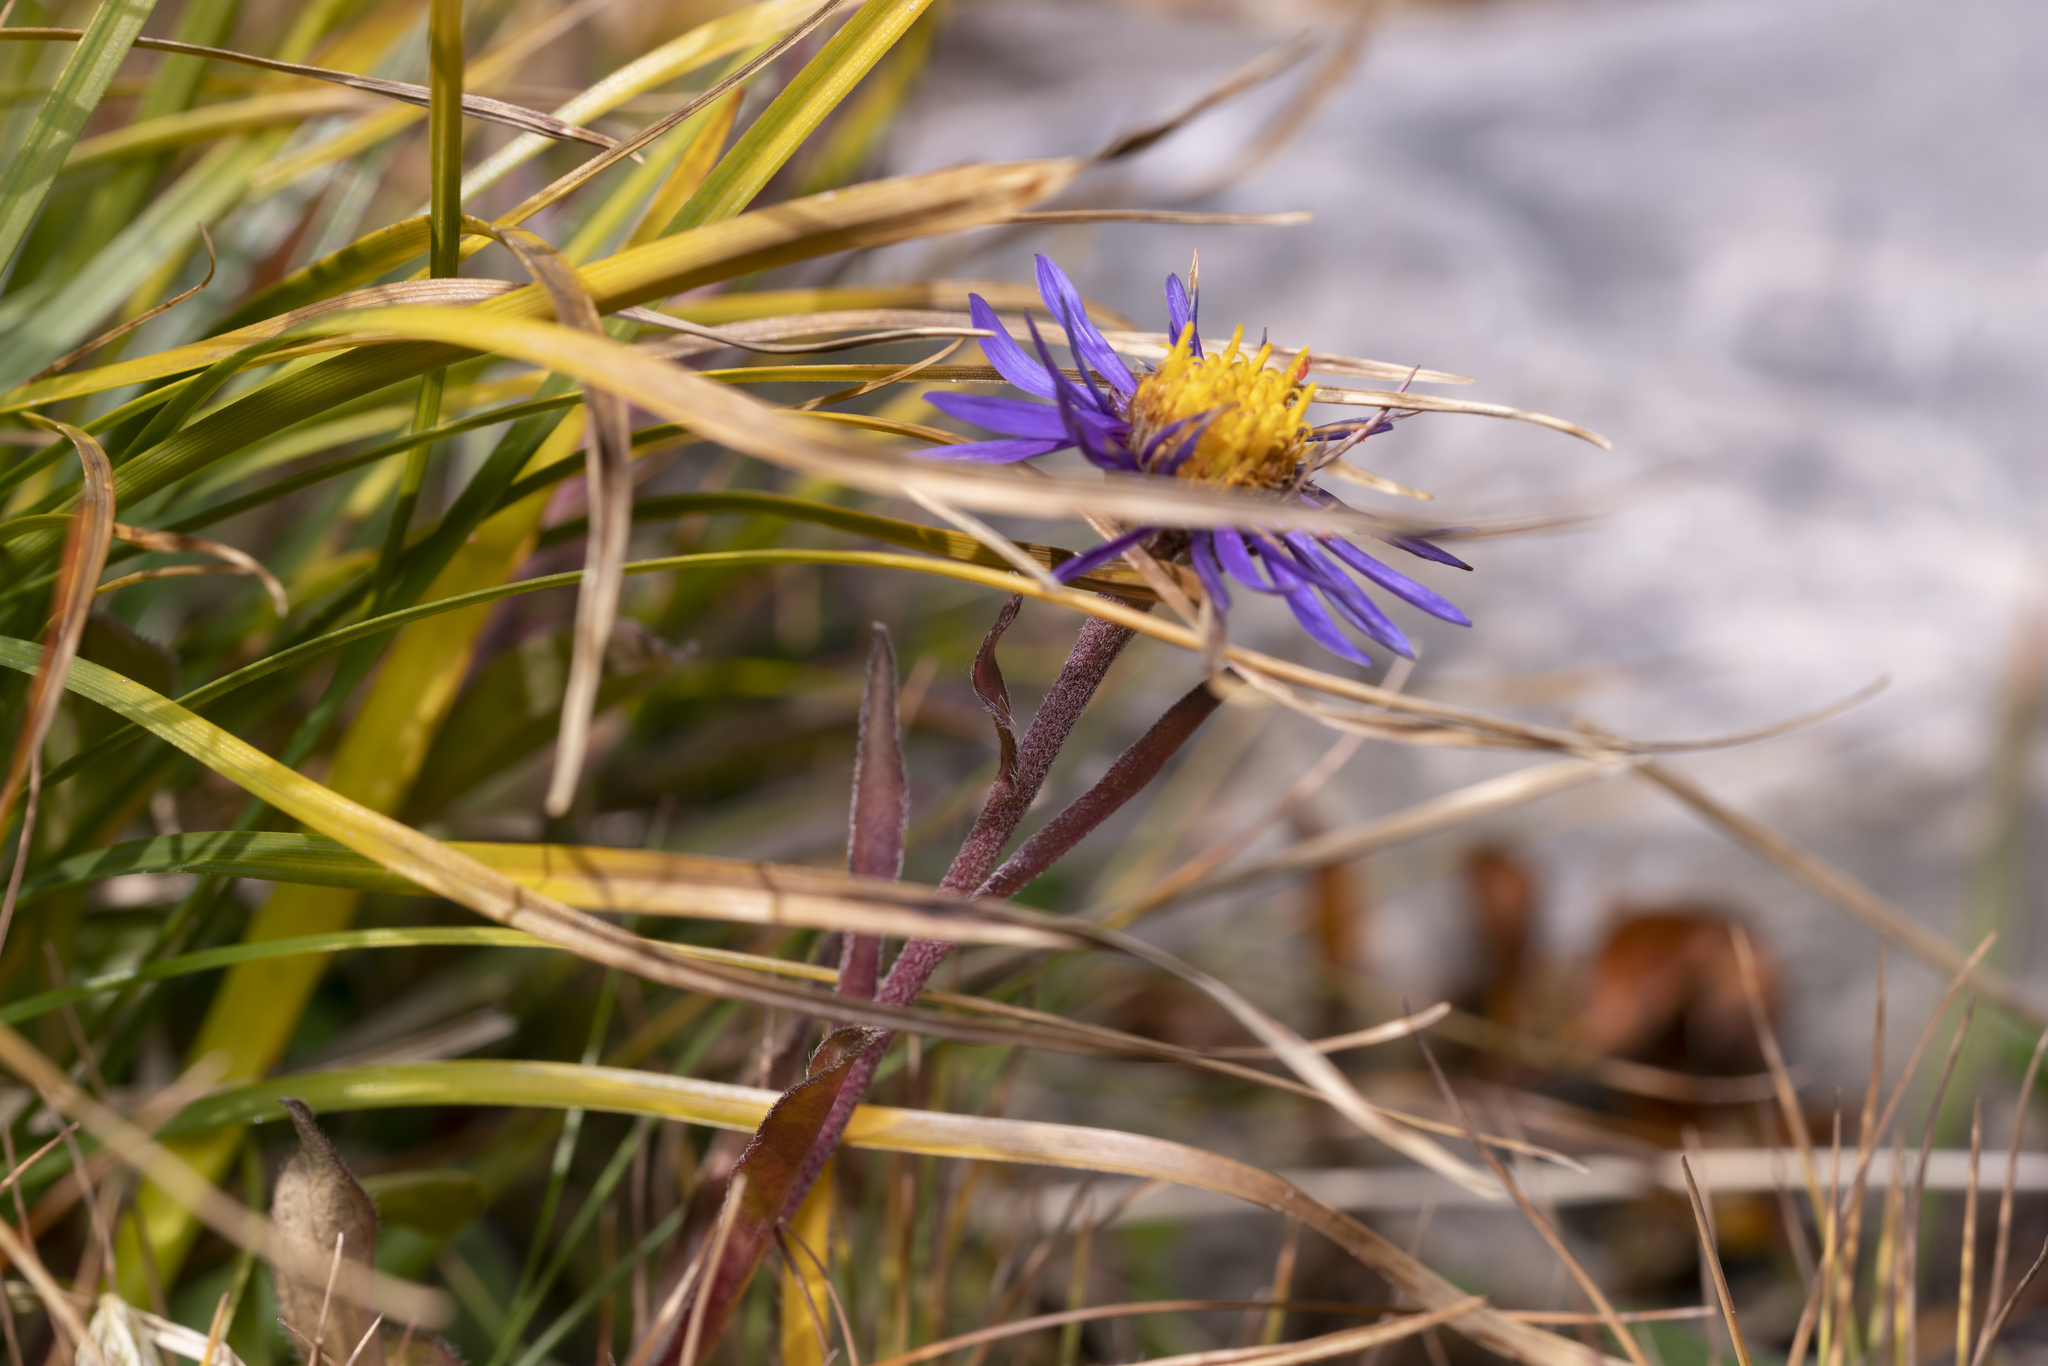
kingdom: Plantae
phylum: Tracheophyta
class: Magnoliopsida
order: Asterales
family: Asteraceae
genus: Aster
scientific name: Aster alpinus
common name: Alpine aster
